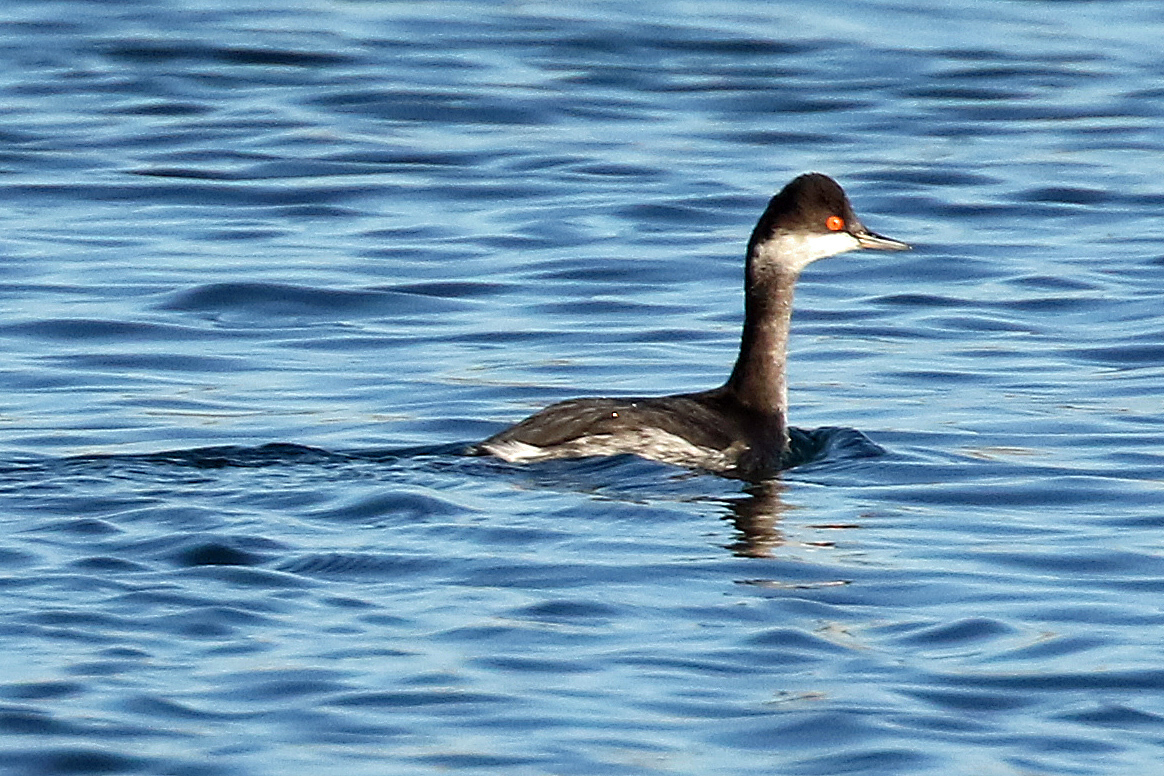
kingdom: Animalia
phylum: Chordata
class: Aves
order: Podicipediformes
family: Podicipedidae
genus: Podiceps
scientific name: Podiceps nigricollis
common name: Black-necked grebe
